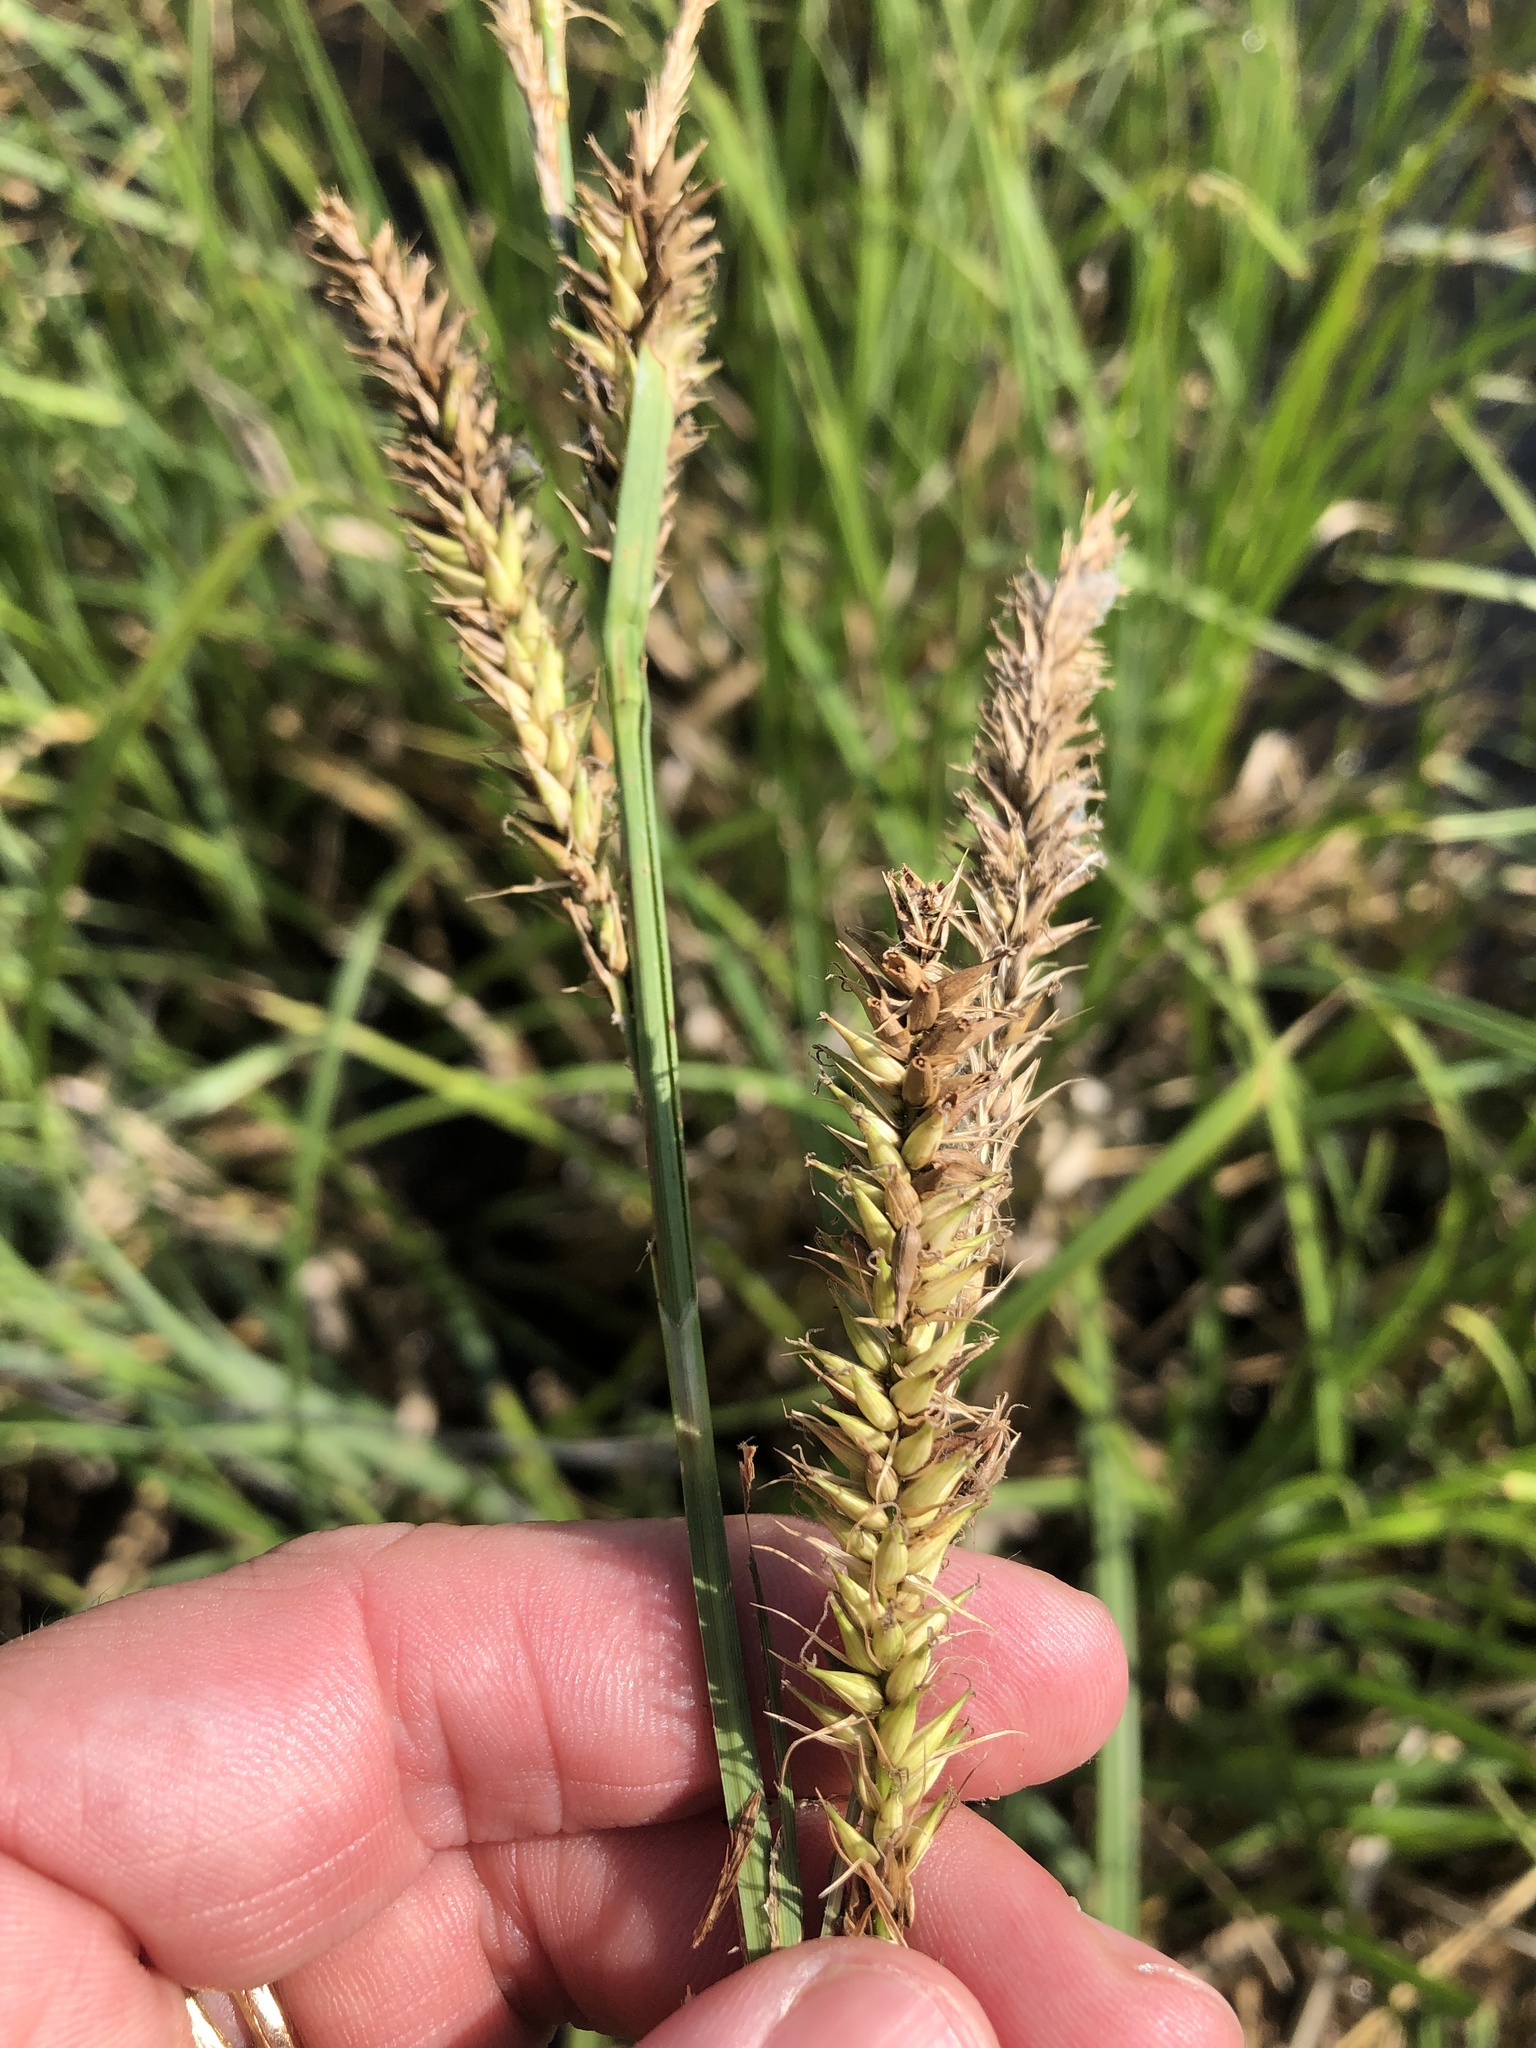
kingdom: Plantae
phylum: Tracheophyta
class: Liliopsida
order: Poales
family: Cyperaceae
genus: Carex
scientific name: Carex hyalinolepis
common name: Shoreline sedge
